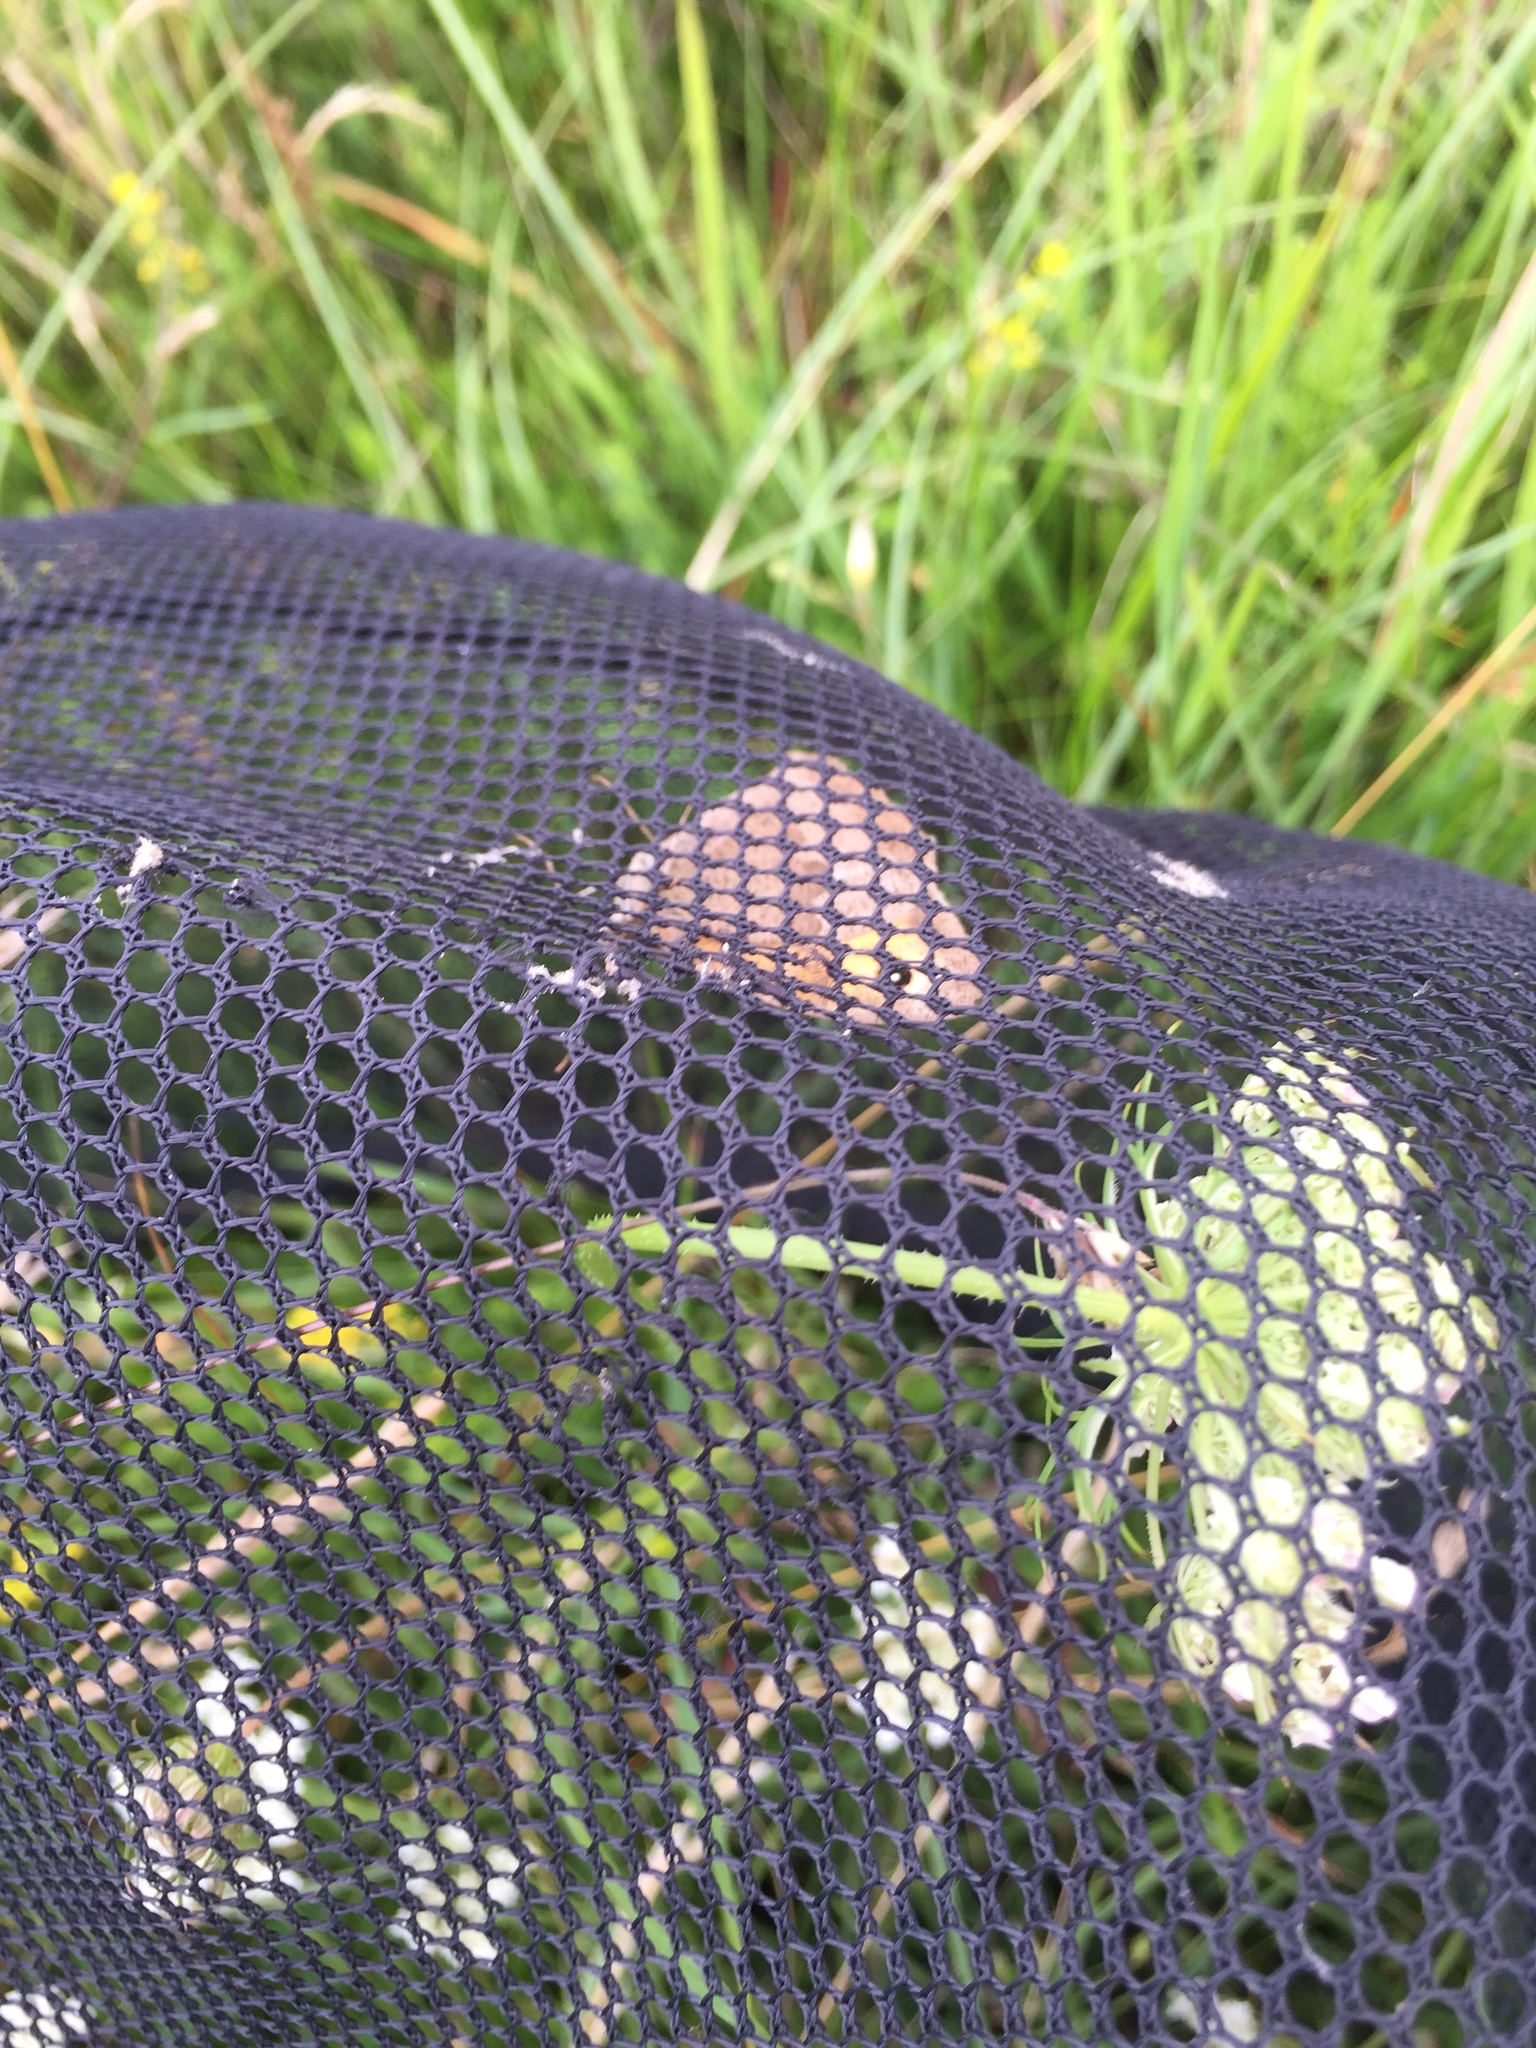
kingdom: Animalia
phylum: Arthropoda
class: Insecta
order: Lepidoptera
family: Nymphalidae
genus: Maniola
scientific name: Maniola jurtina
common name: Meadow brown
